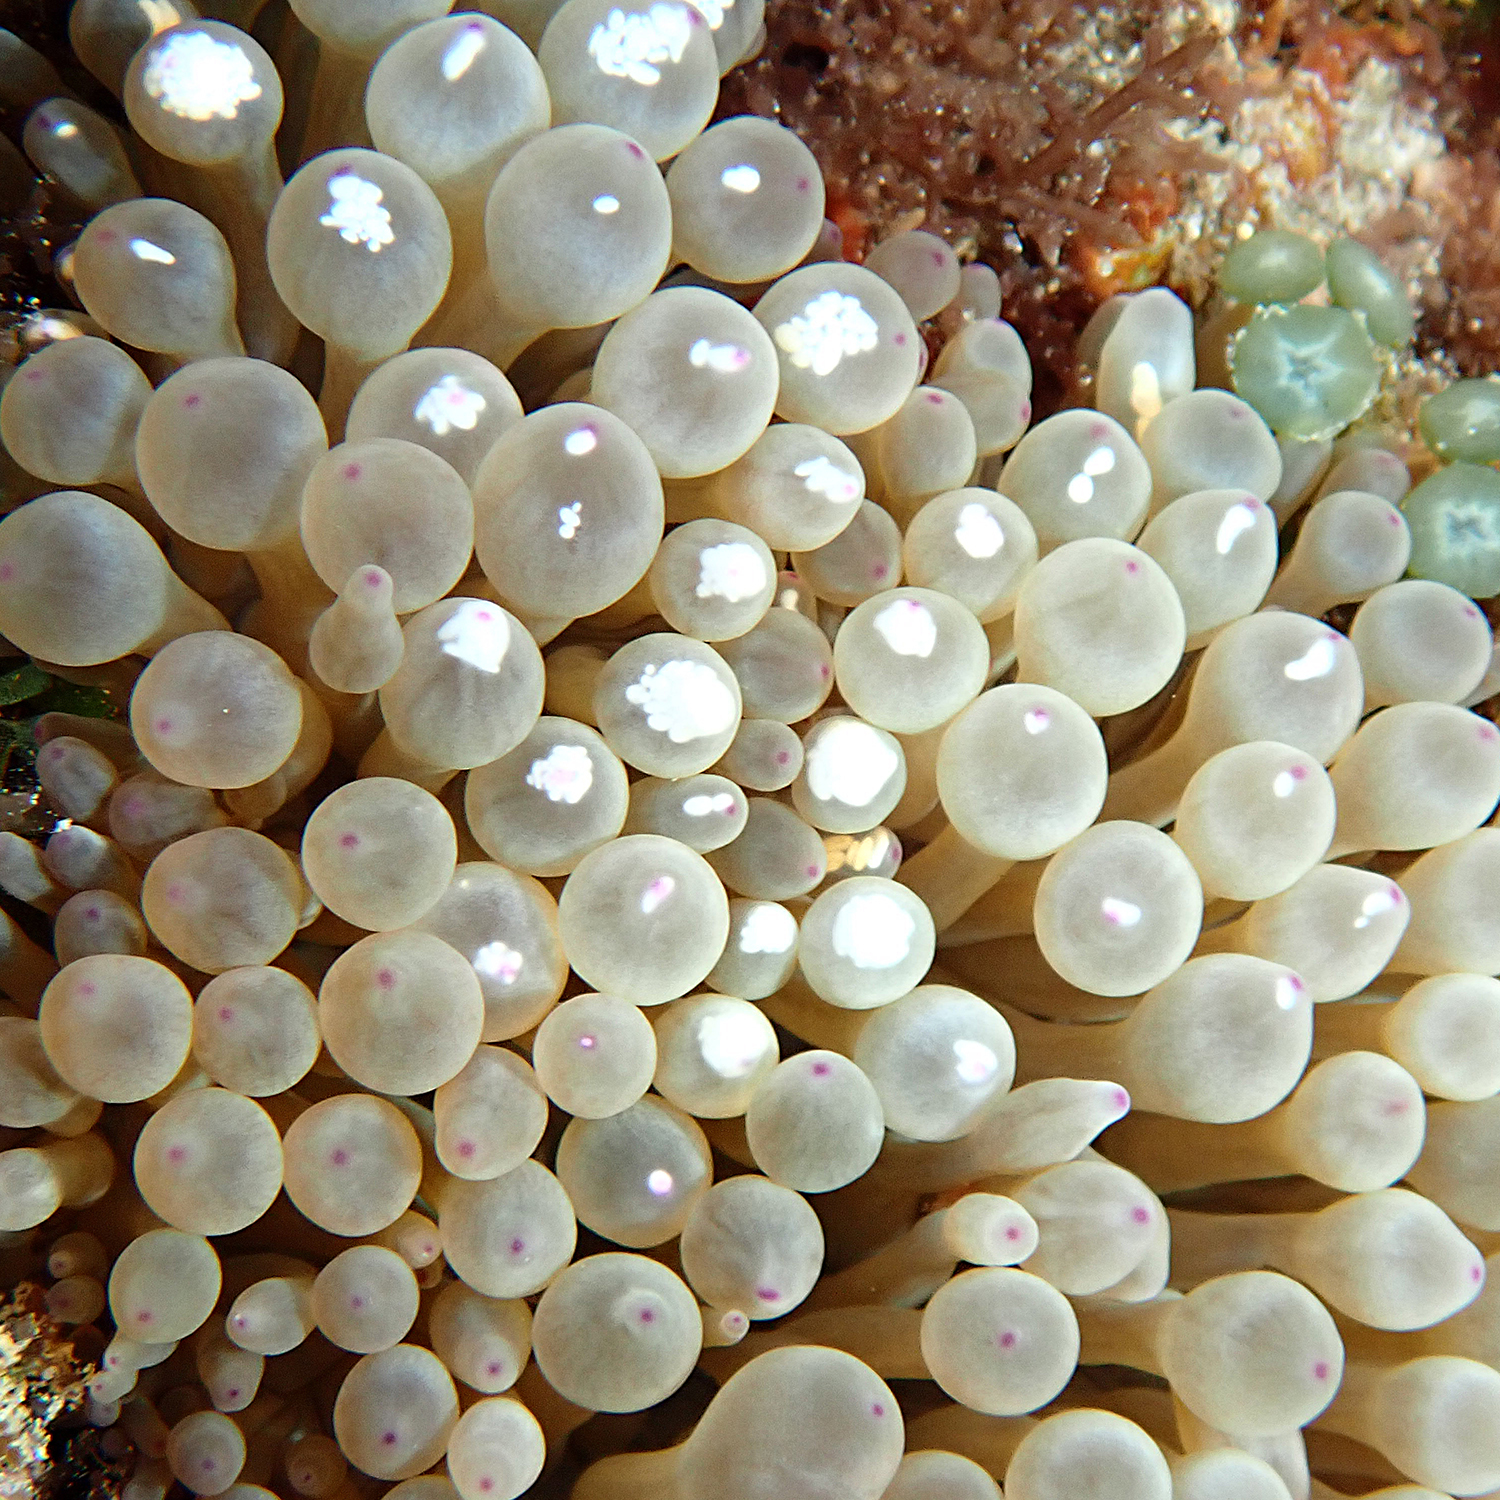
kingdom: Animalia
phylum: Cnidaria
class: Anthozoa
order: Actiniaria
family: Actiniidae
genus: Entacmaea
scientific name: Entacmaea quadricolor
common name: Bulb tentacle sea anemone
